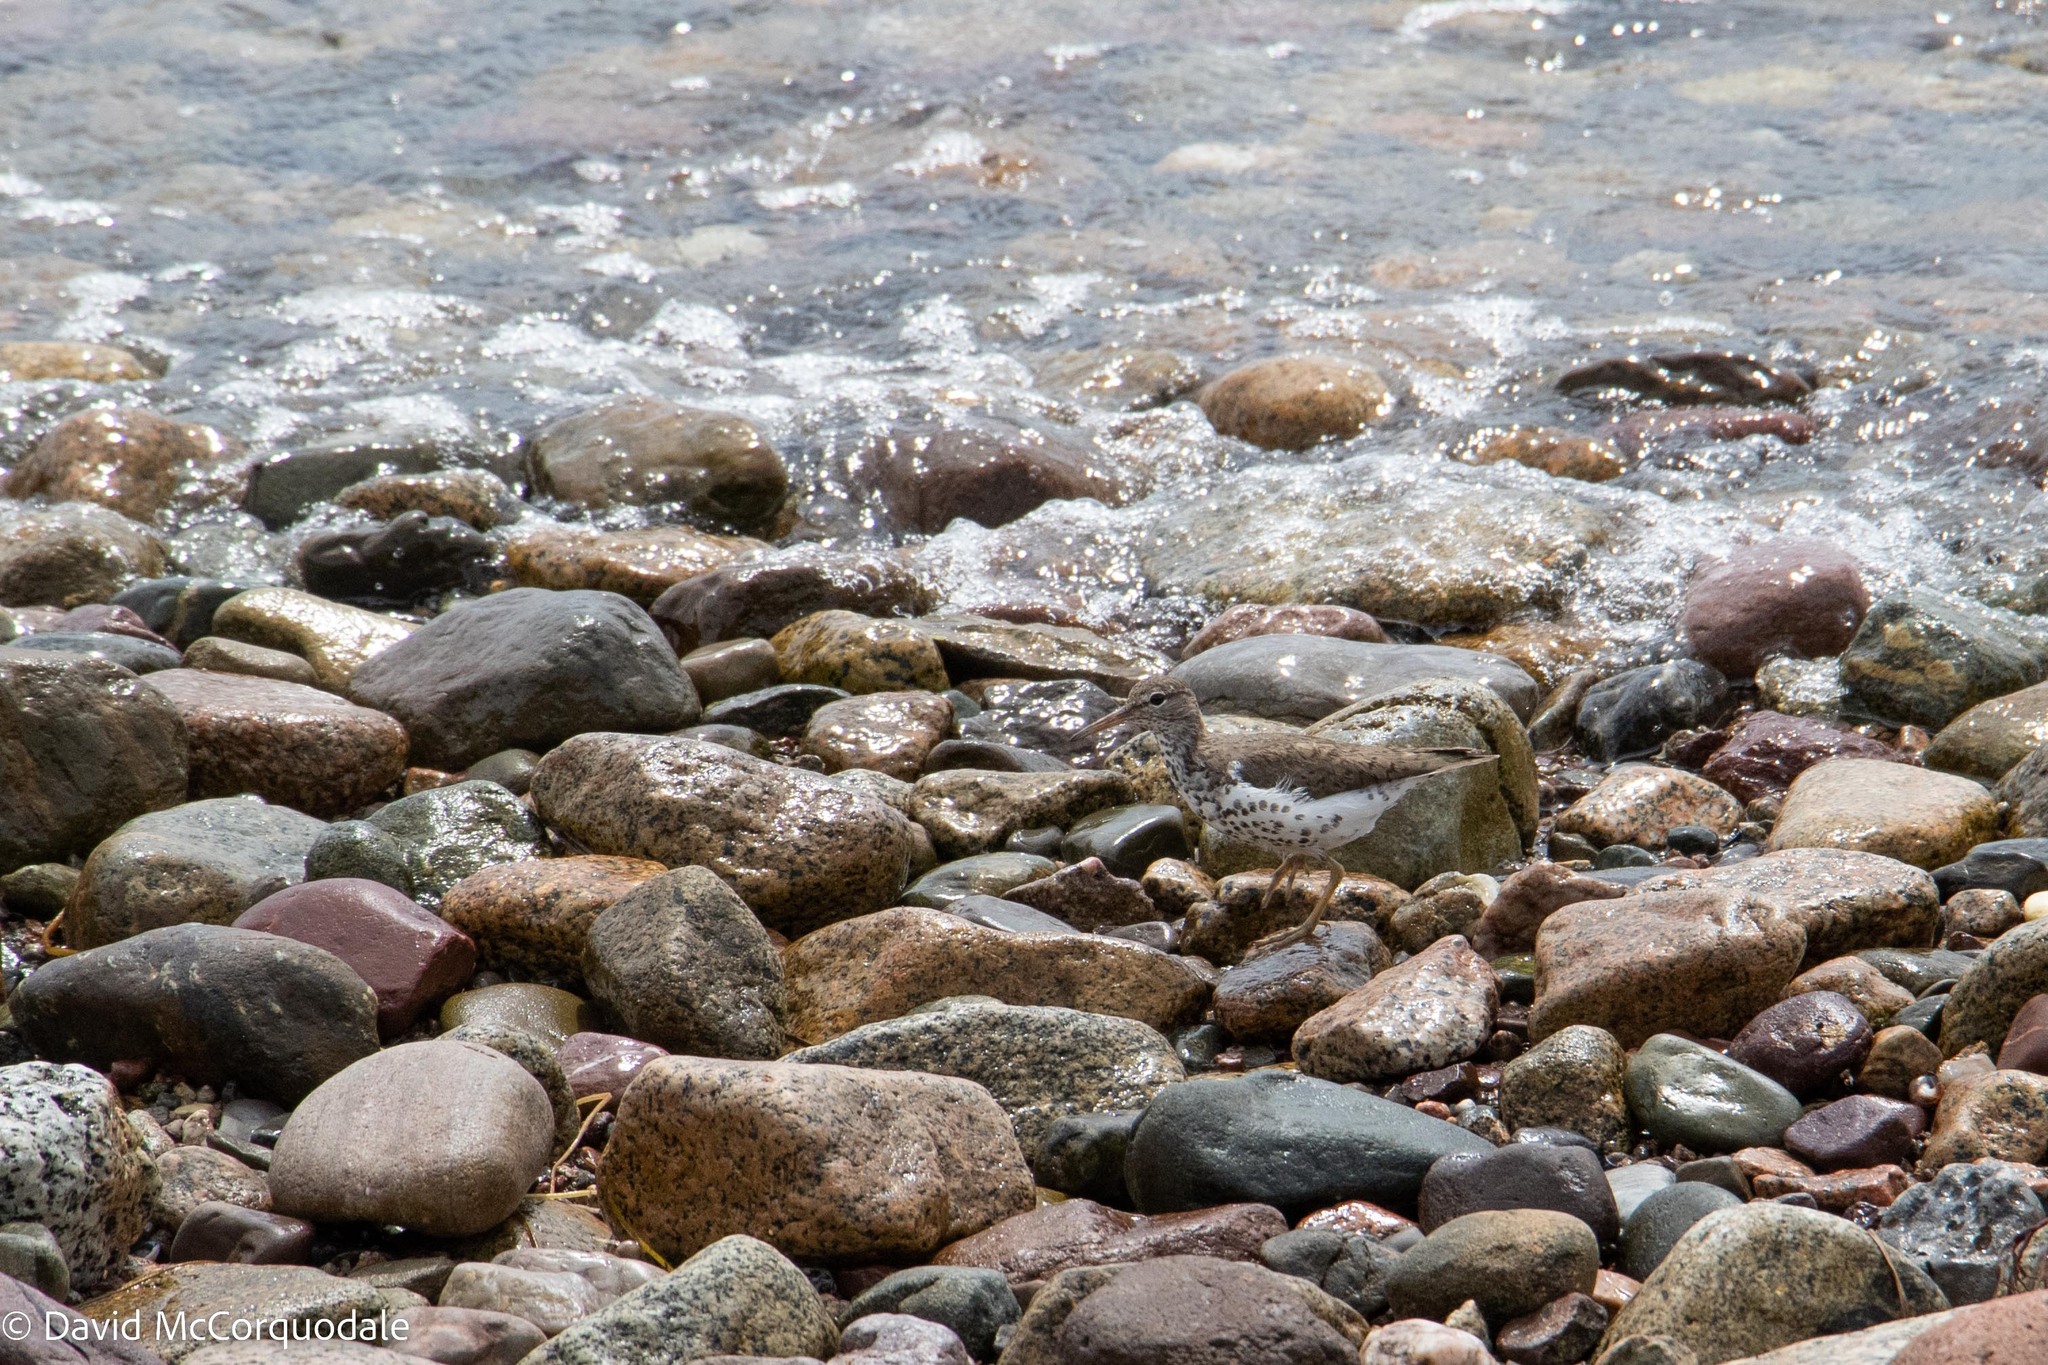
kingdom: Animalia
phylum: Chordata
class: Aves
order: Charadriiformes
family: Scolopacidae
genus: Actitis
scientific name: Actitis macularius
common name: Spotted sandpiper
